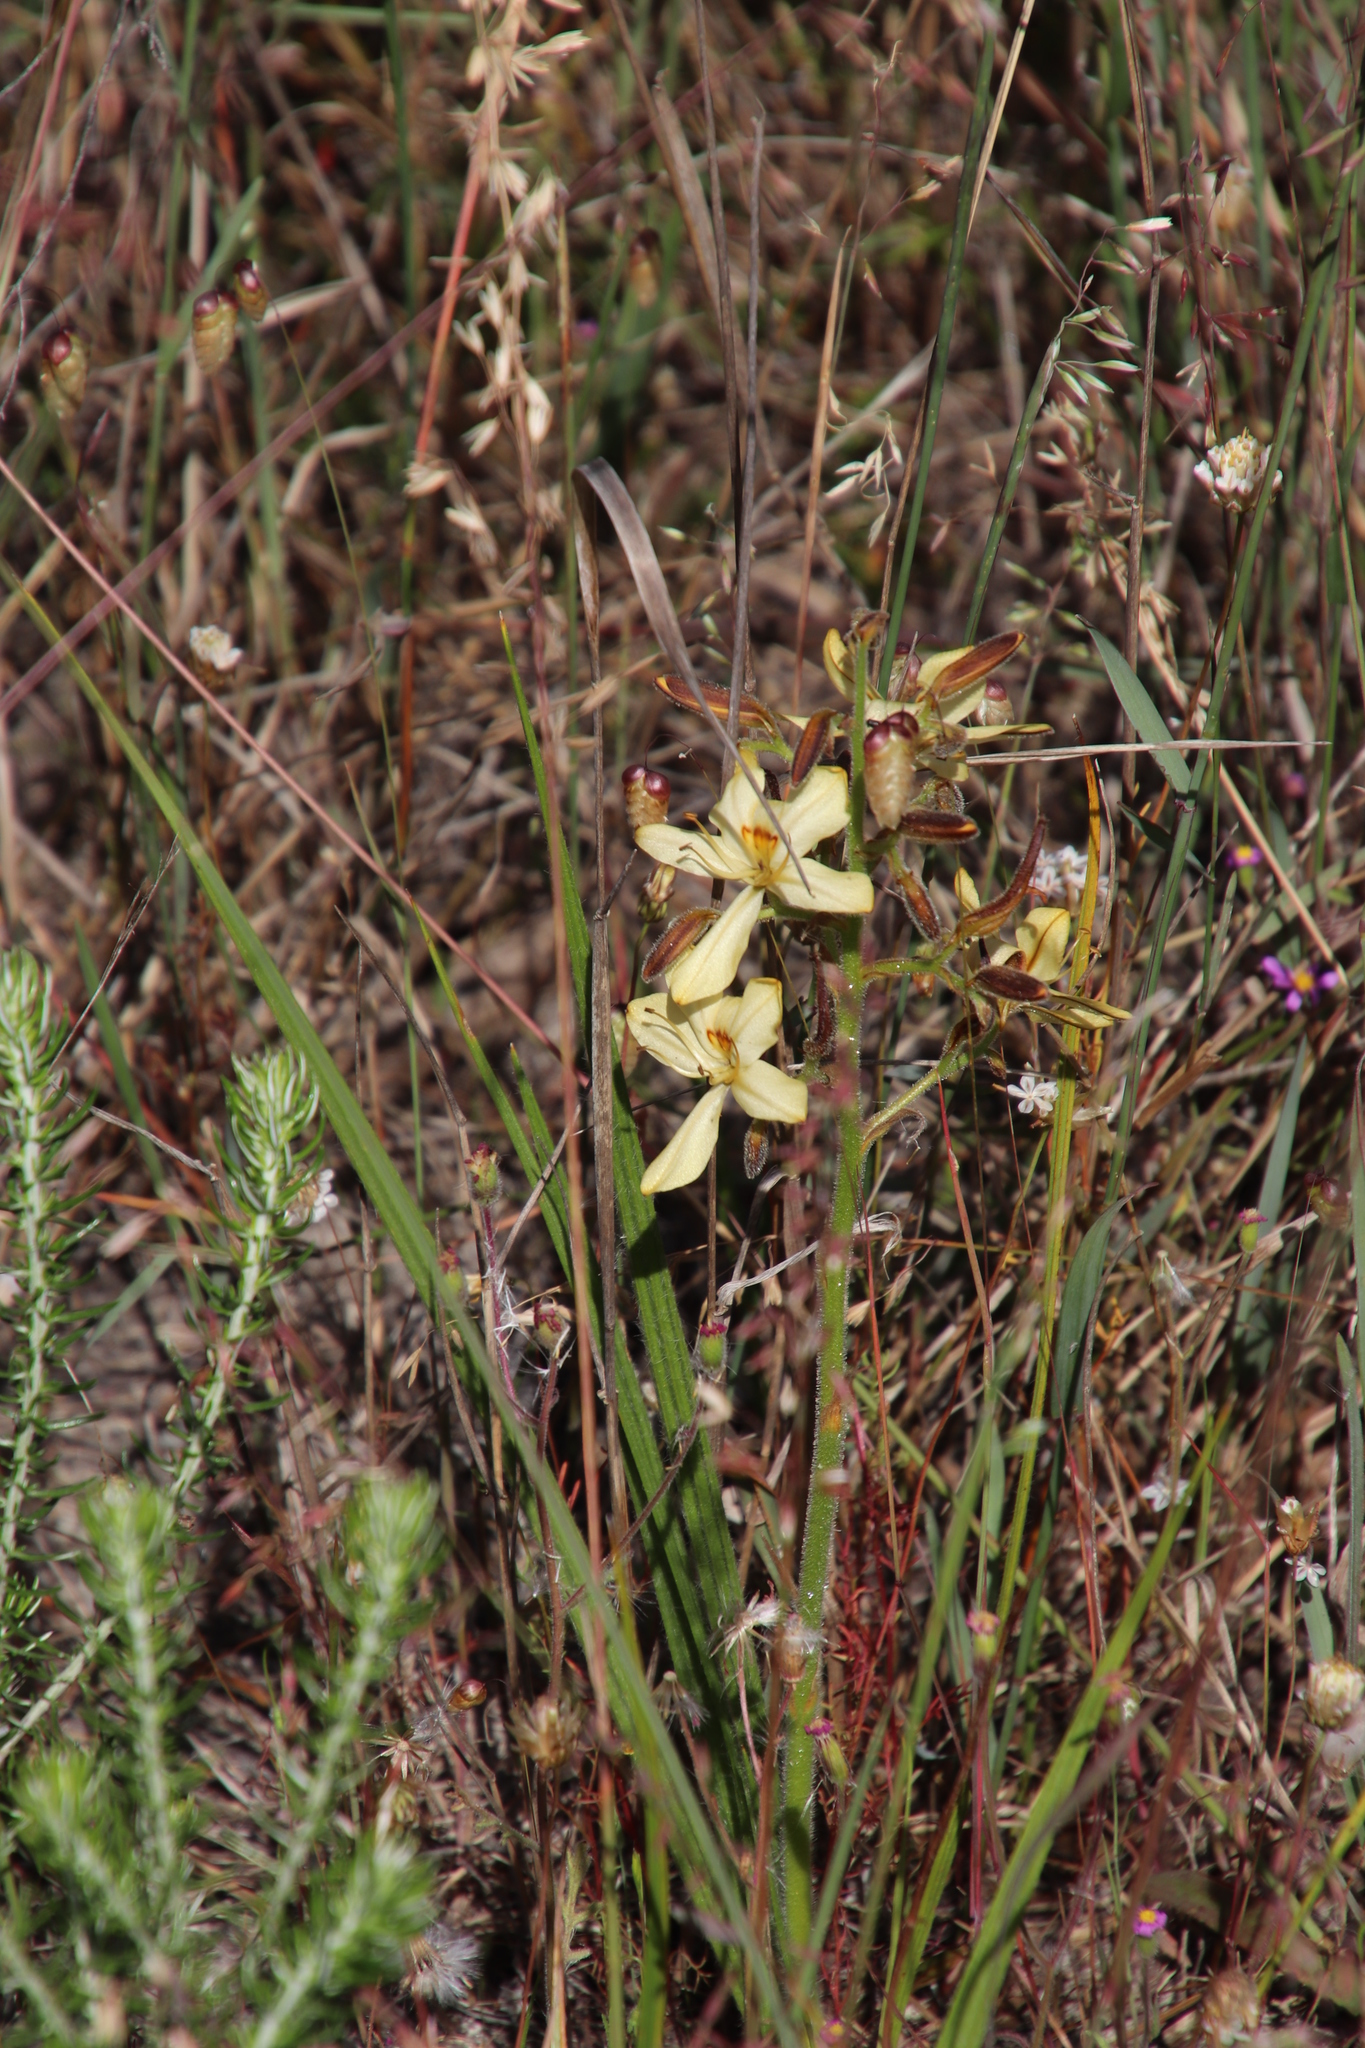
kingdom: Plantae
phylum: Tracheophyta
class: Liliopsida
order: Commelinales
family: Haemodoraceae
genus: Wachendorfia
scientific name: Wachendorfia paniculata
